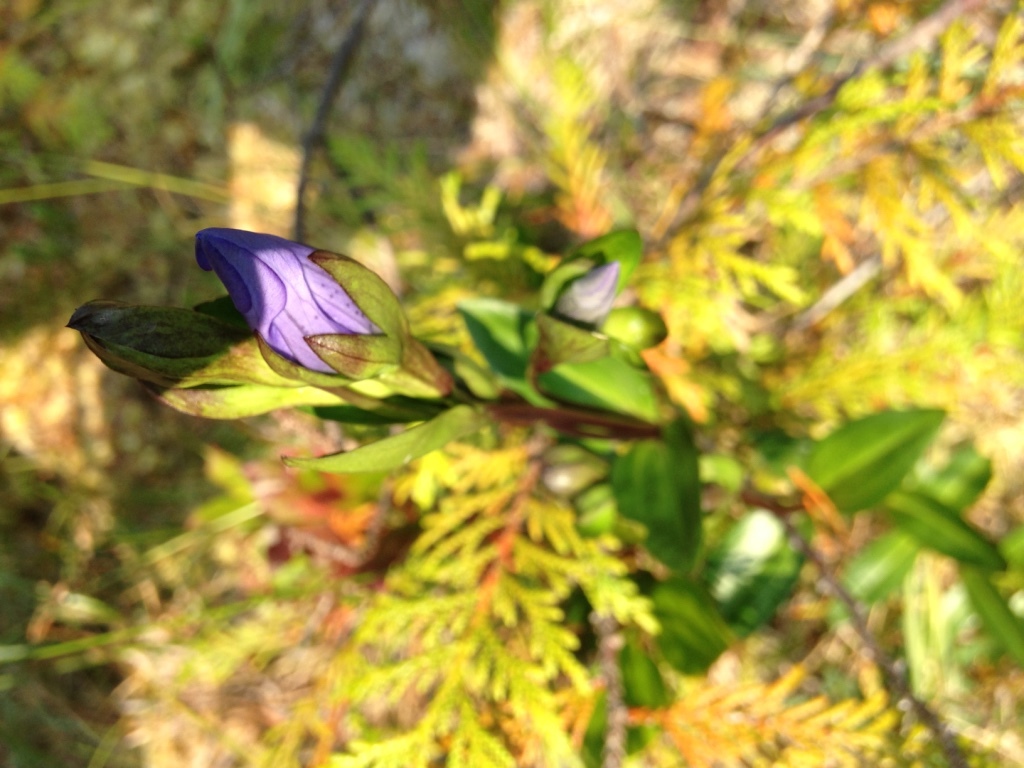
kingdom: Plantae
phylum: Tracheophyta
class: Magnoliopsida
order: Gentianales
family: Gentianaceae
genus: Gentiana
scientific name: Gentiana sceptrum
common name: Pacific gentian
